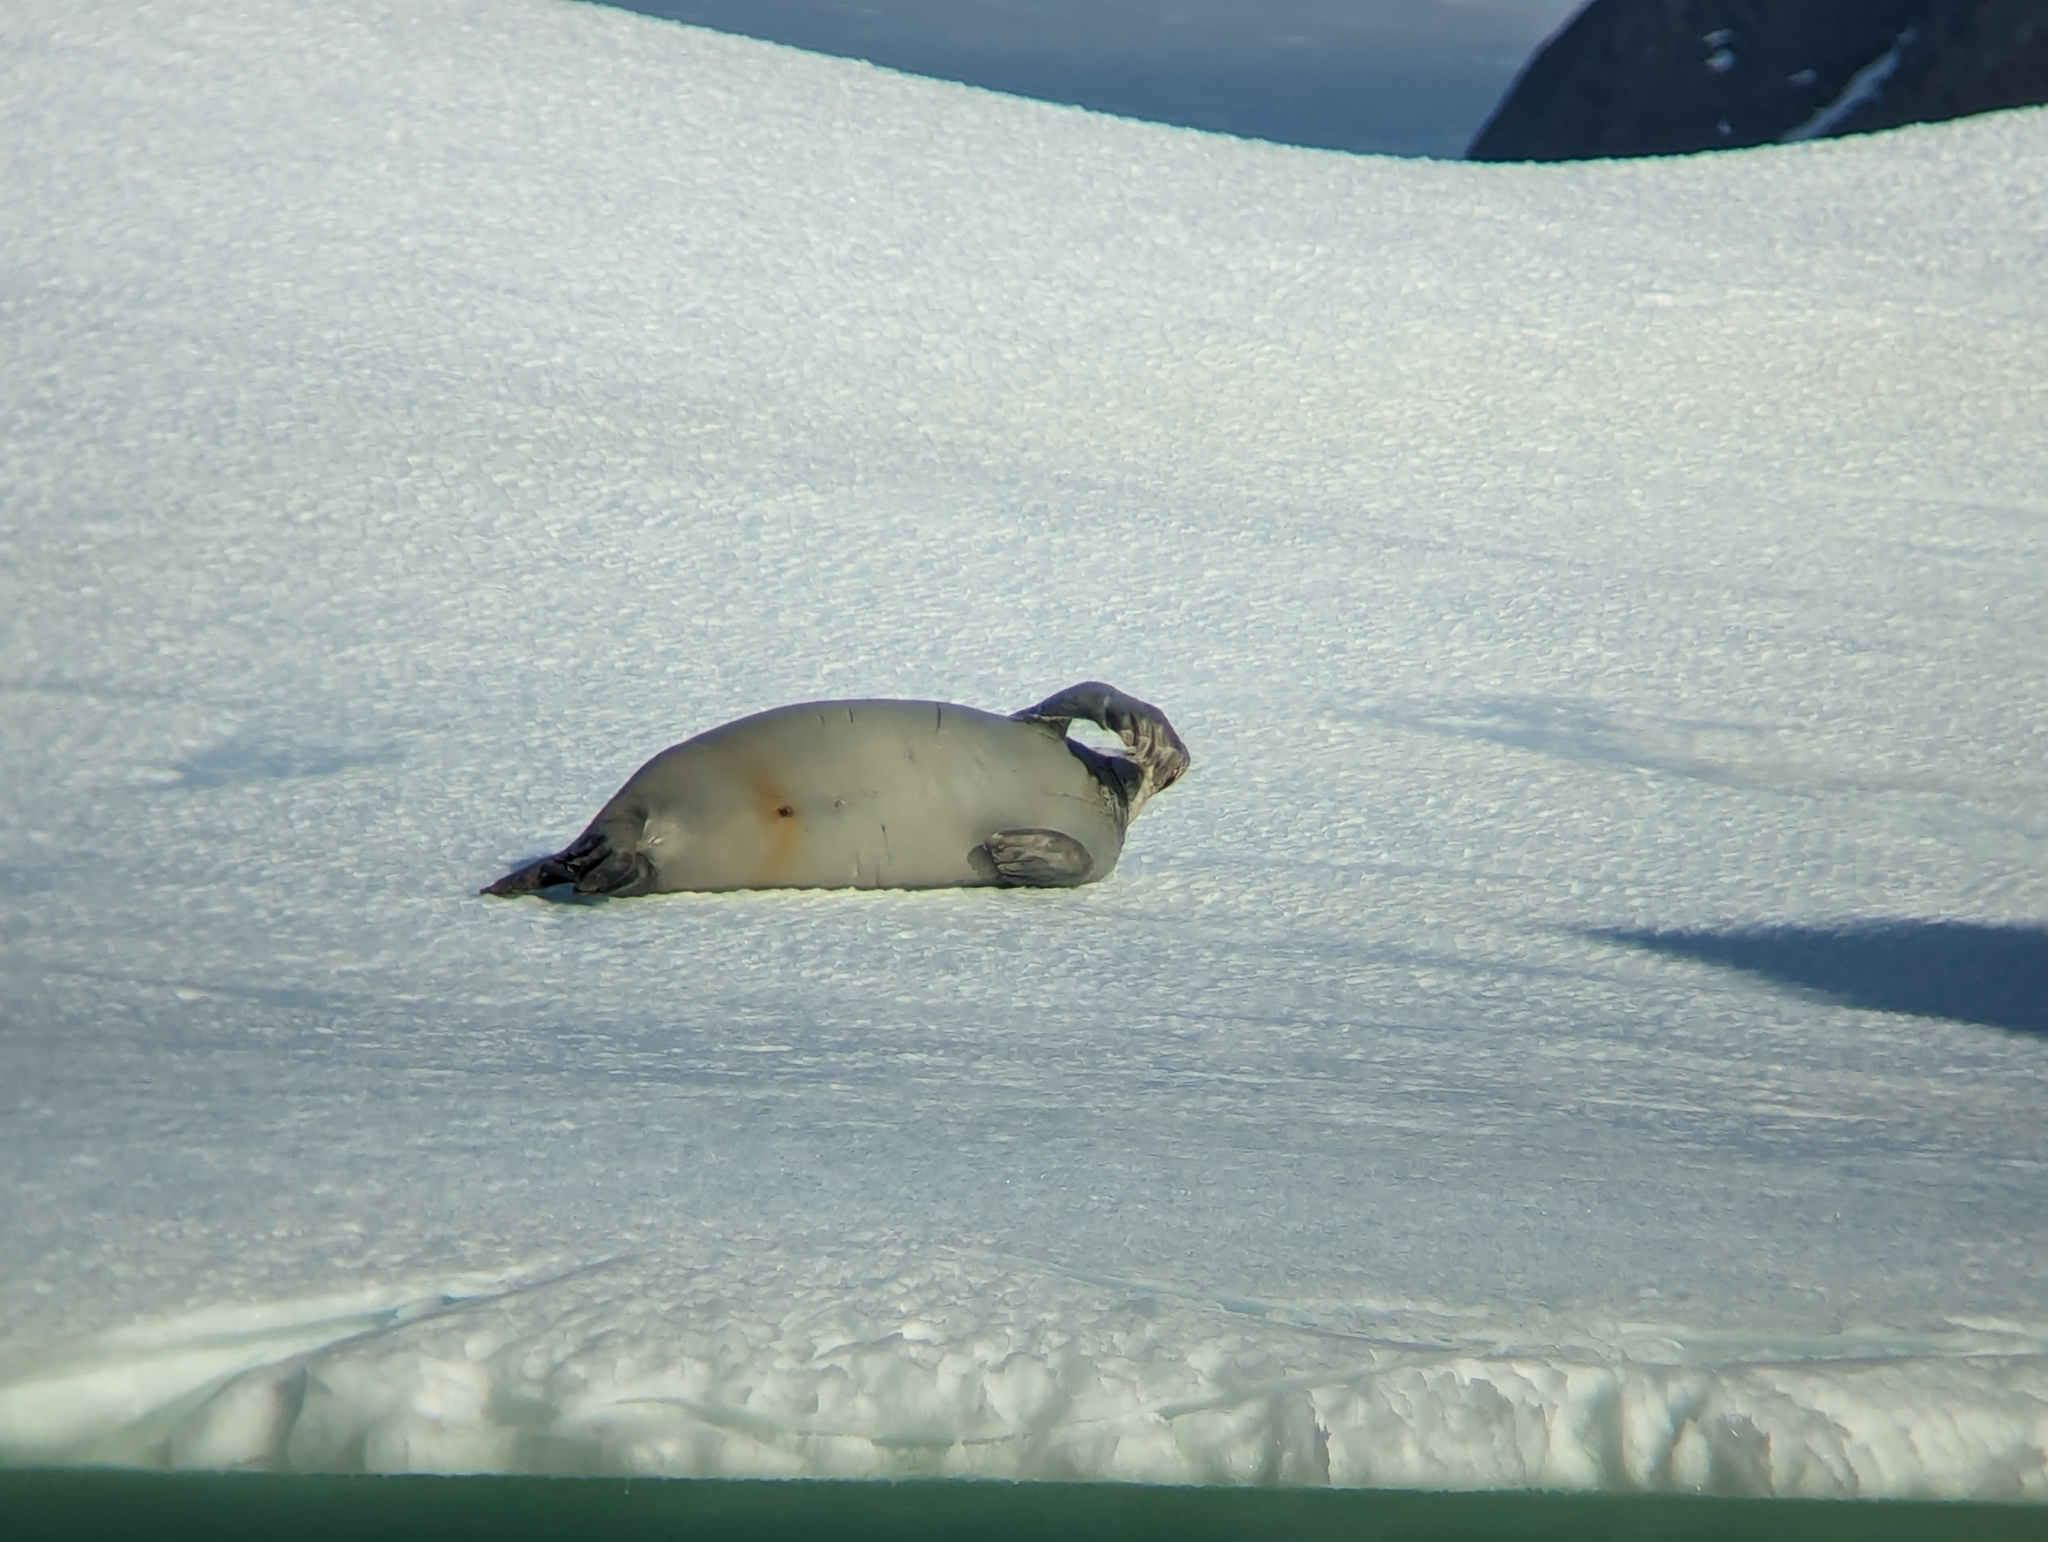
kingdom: Animalia
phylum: Chordata
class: Mammalia
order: Carnivora
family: Phocidae
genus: Lobodon
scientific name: Lobodon carcinophaga
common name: Crabeater seal
